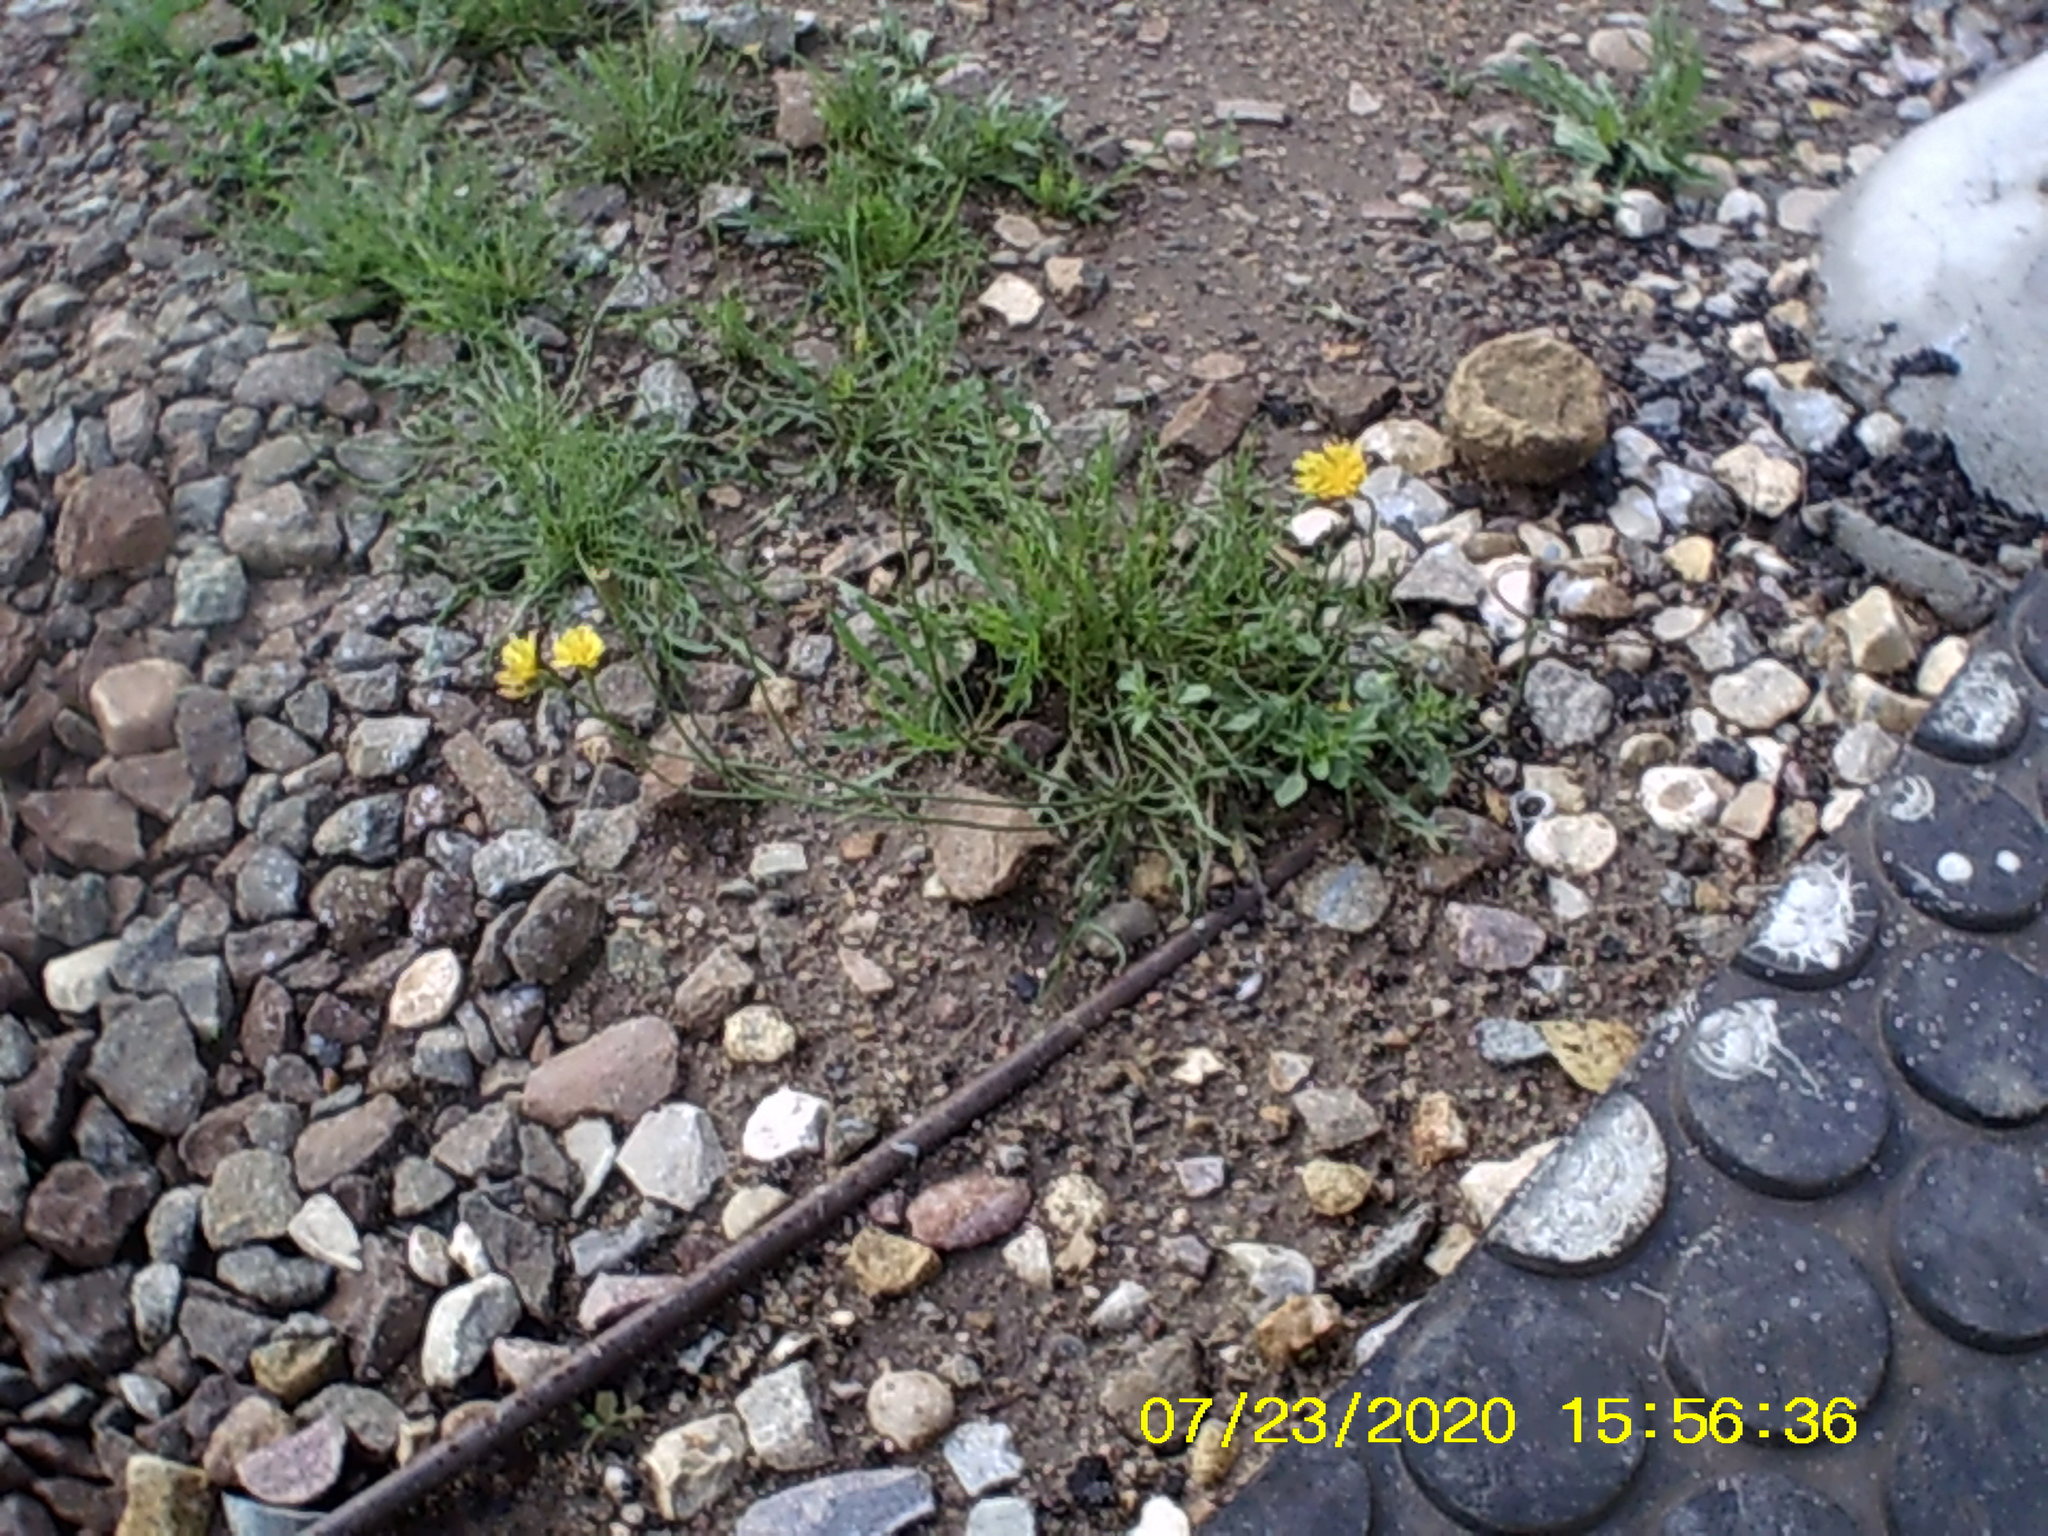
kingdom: Plantae
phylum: Tracheophyta
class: Magnoliopsida
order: Asterales
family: Asteraceae
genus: Scorzoneroides
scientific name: Scorzoneroides autumnalis
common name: Autumn hawkbit
